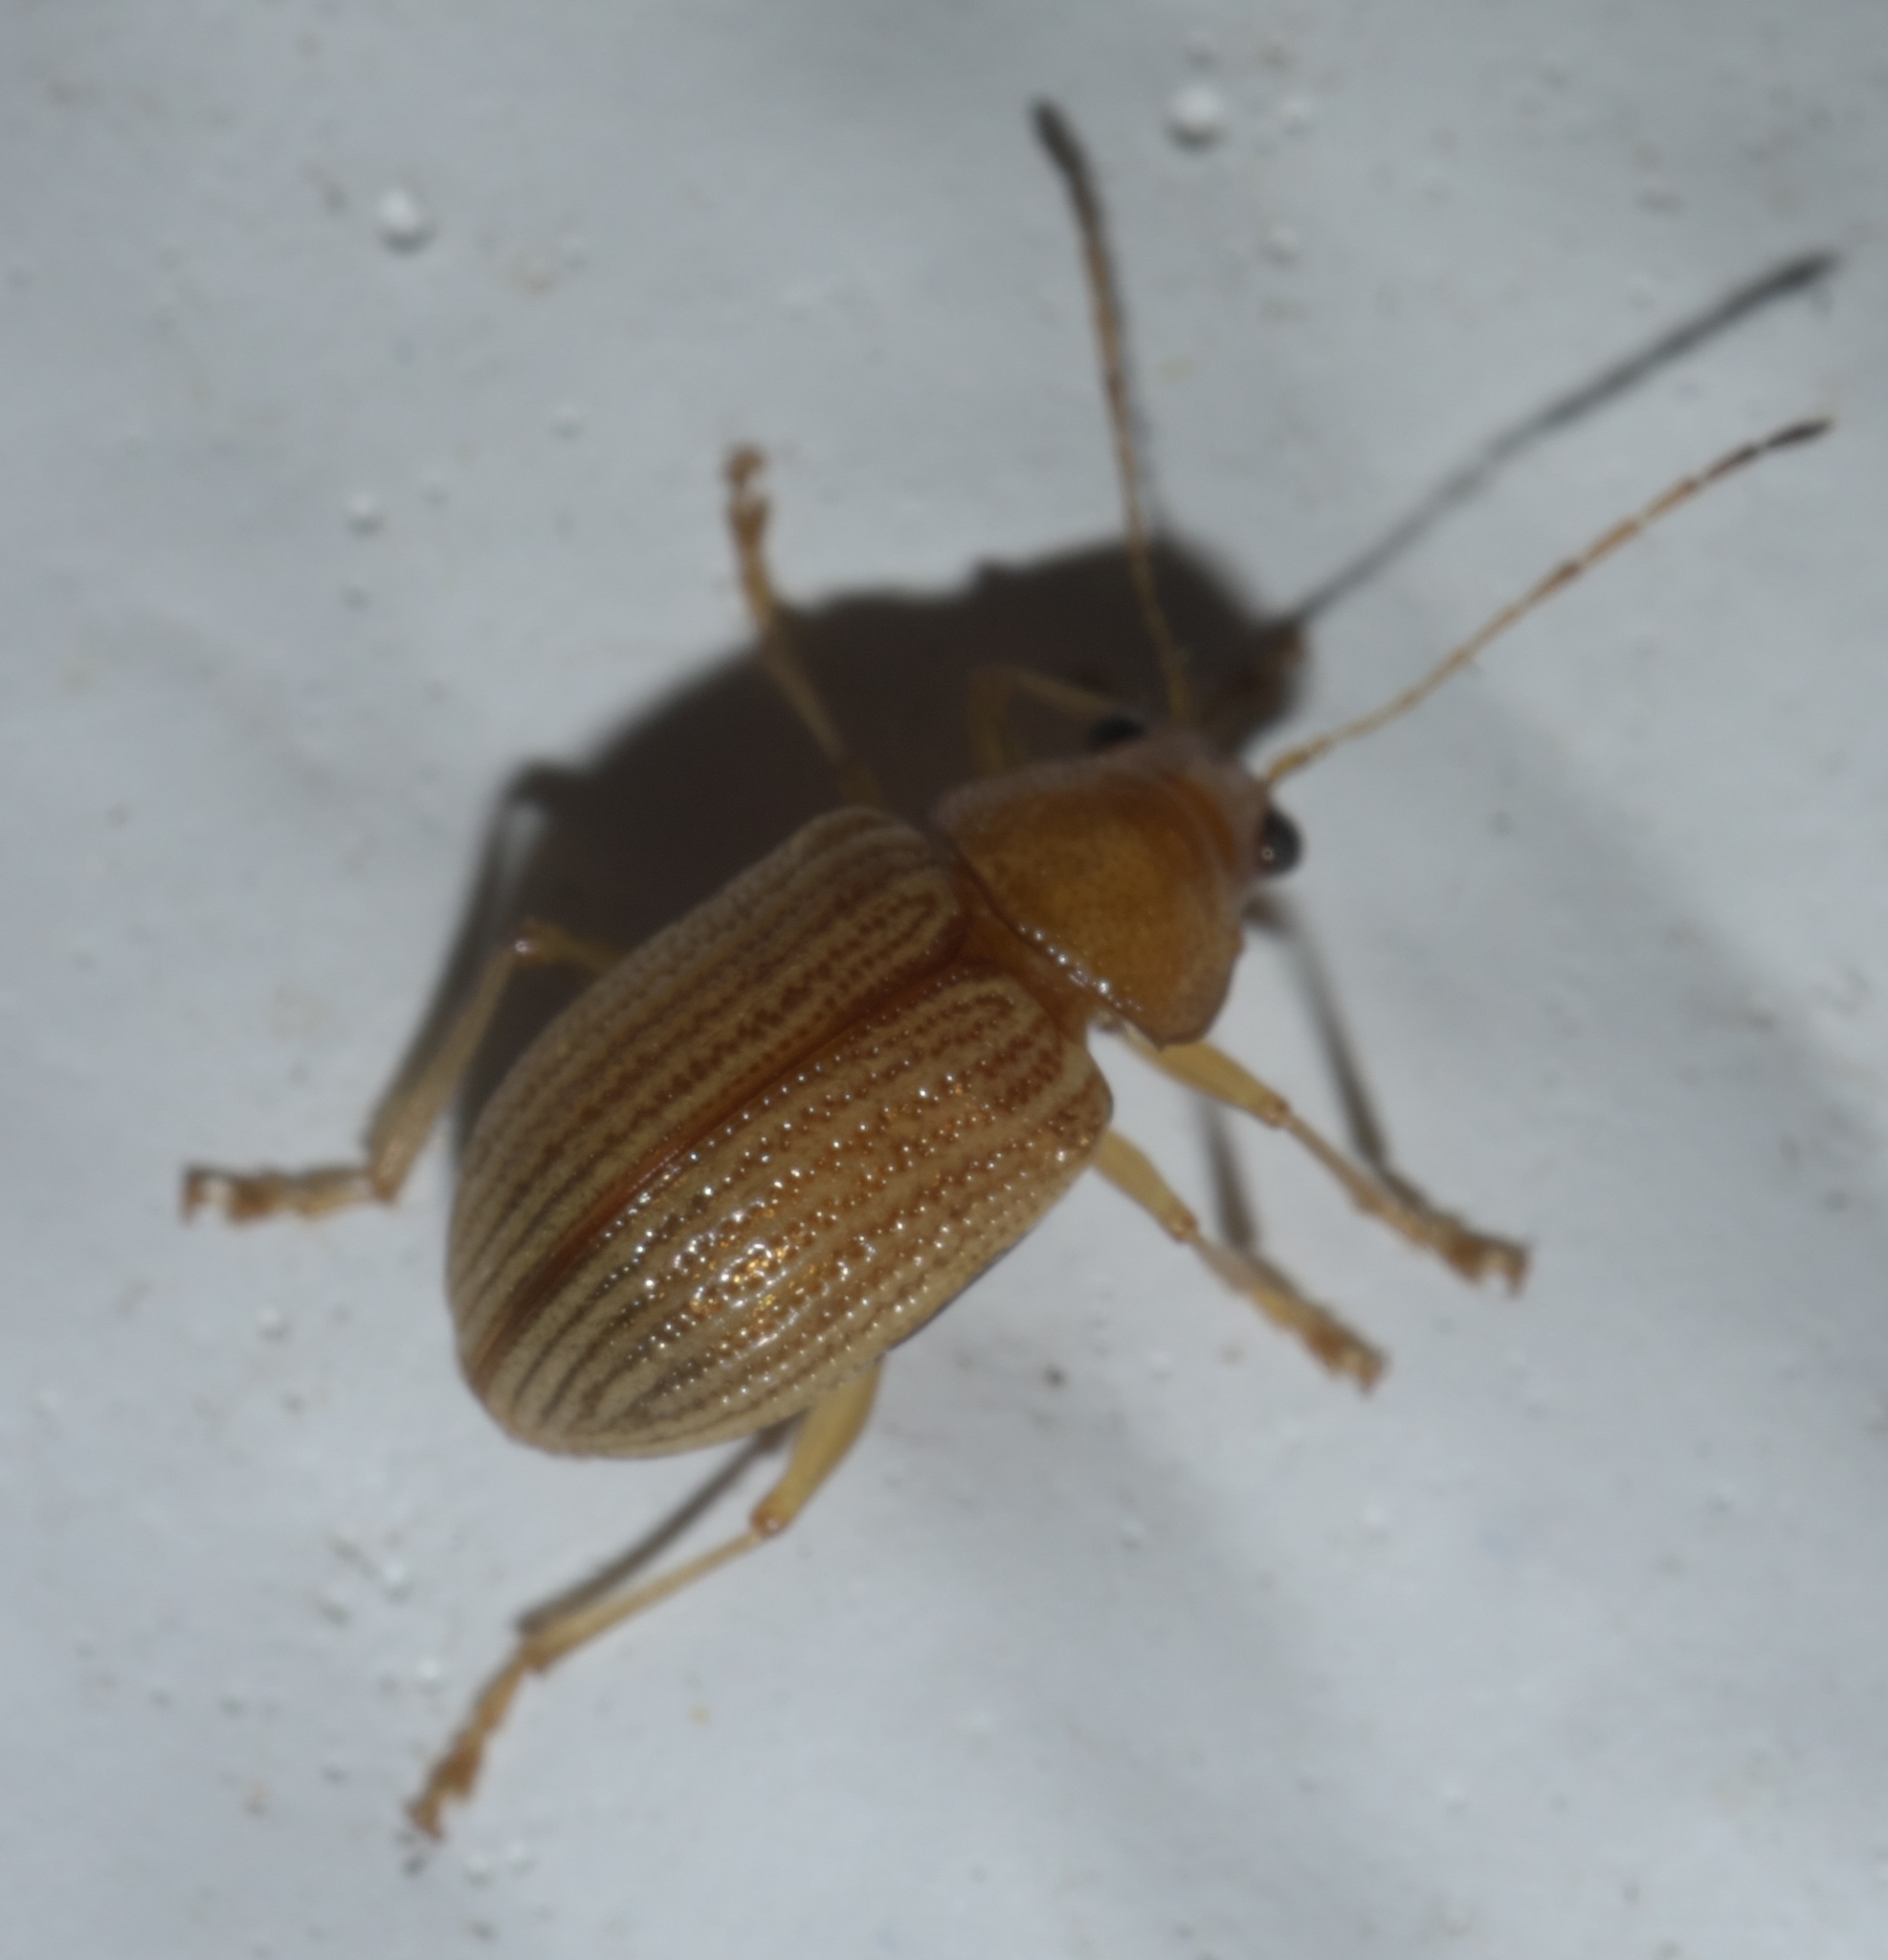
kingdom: Animalia
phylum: Arthropoda
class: Insecta
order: Coleoptera
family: Chrysomelidae
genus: Colaspis
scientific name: Colaspis brunnea
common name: Grape colaspis
